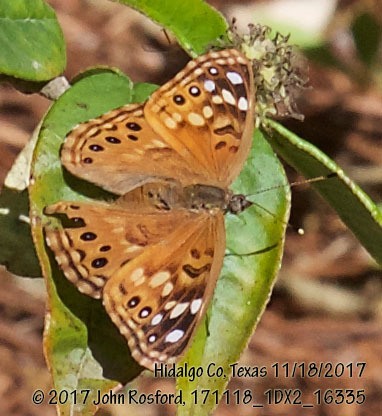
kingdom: Animalia
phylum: Arthropoda
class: Insecta
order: Lepidoptera
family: Nymphalidae
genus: Asterocampa
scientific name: Asterocampa celtis
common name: Hackberry emperor
